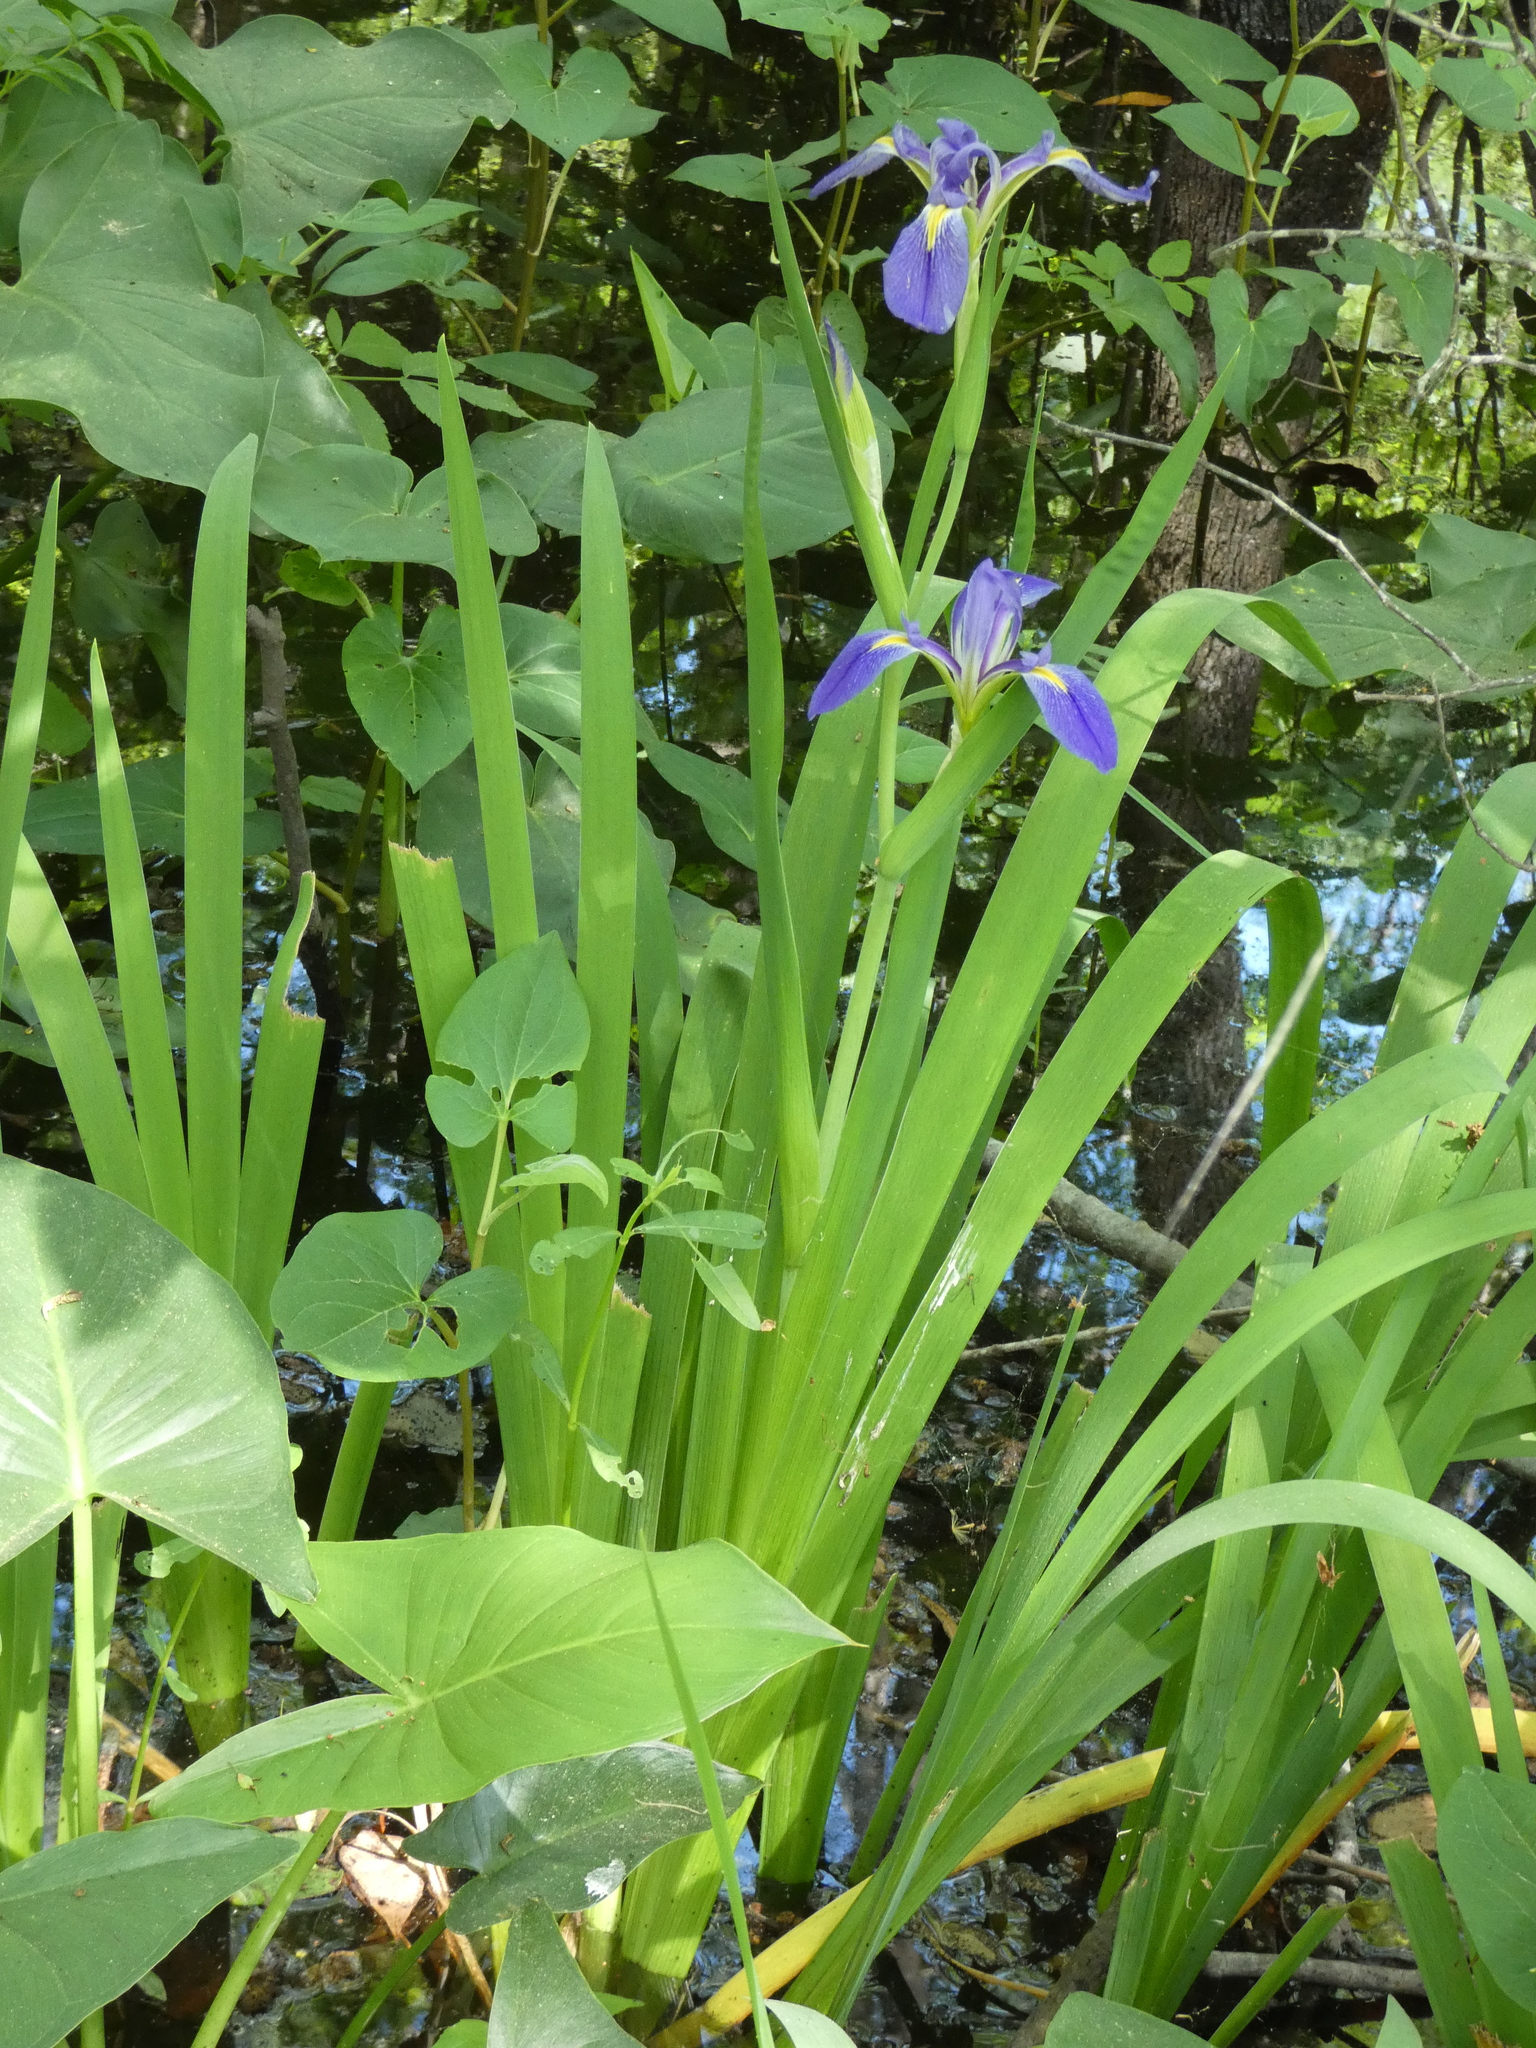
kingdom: Plantae
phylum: Tracheophyta
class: Liliopsida
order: Asparagales
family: Iridaceae
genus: Iris
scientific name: Iris savannarum
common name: Prairie iris
